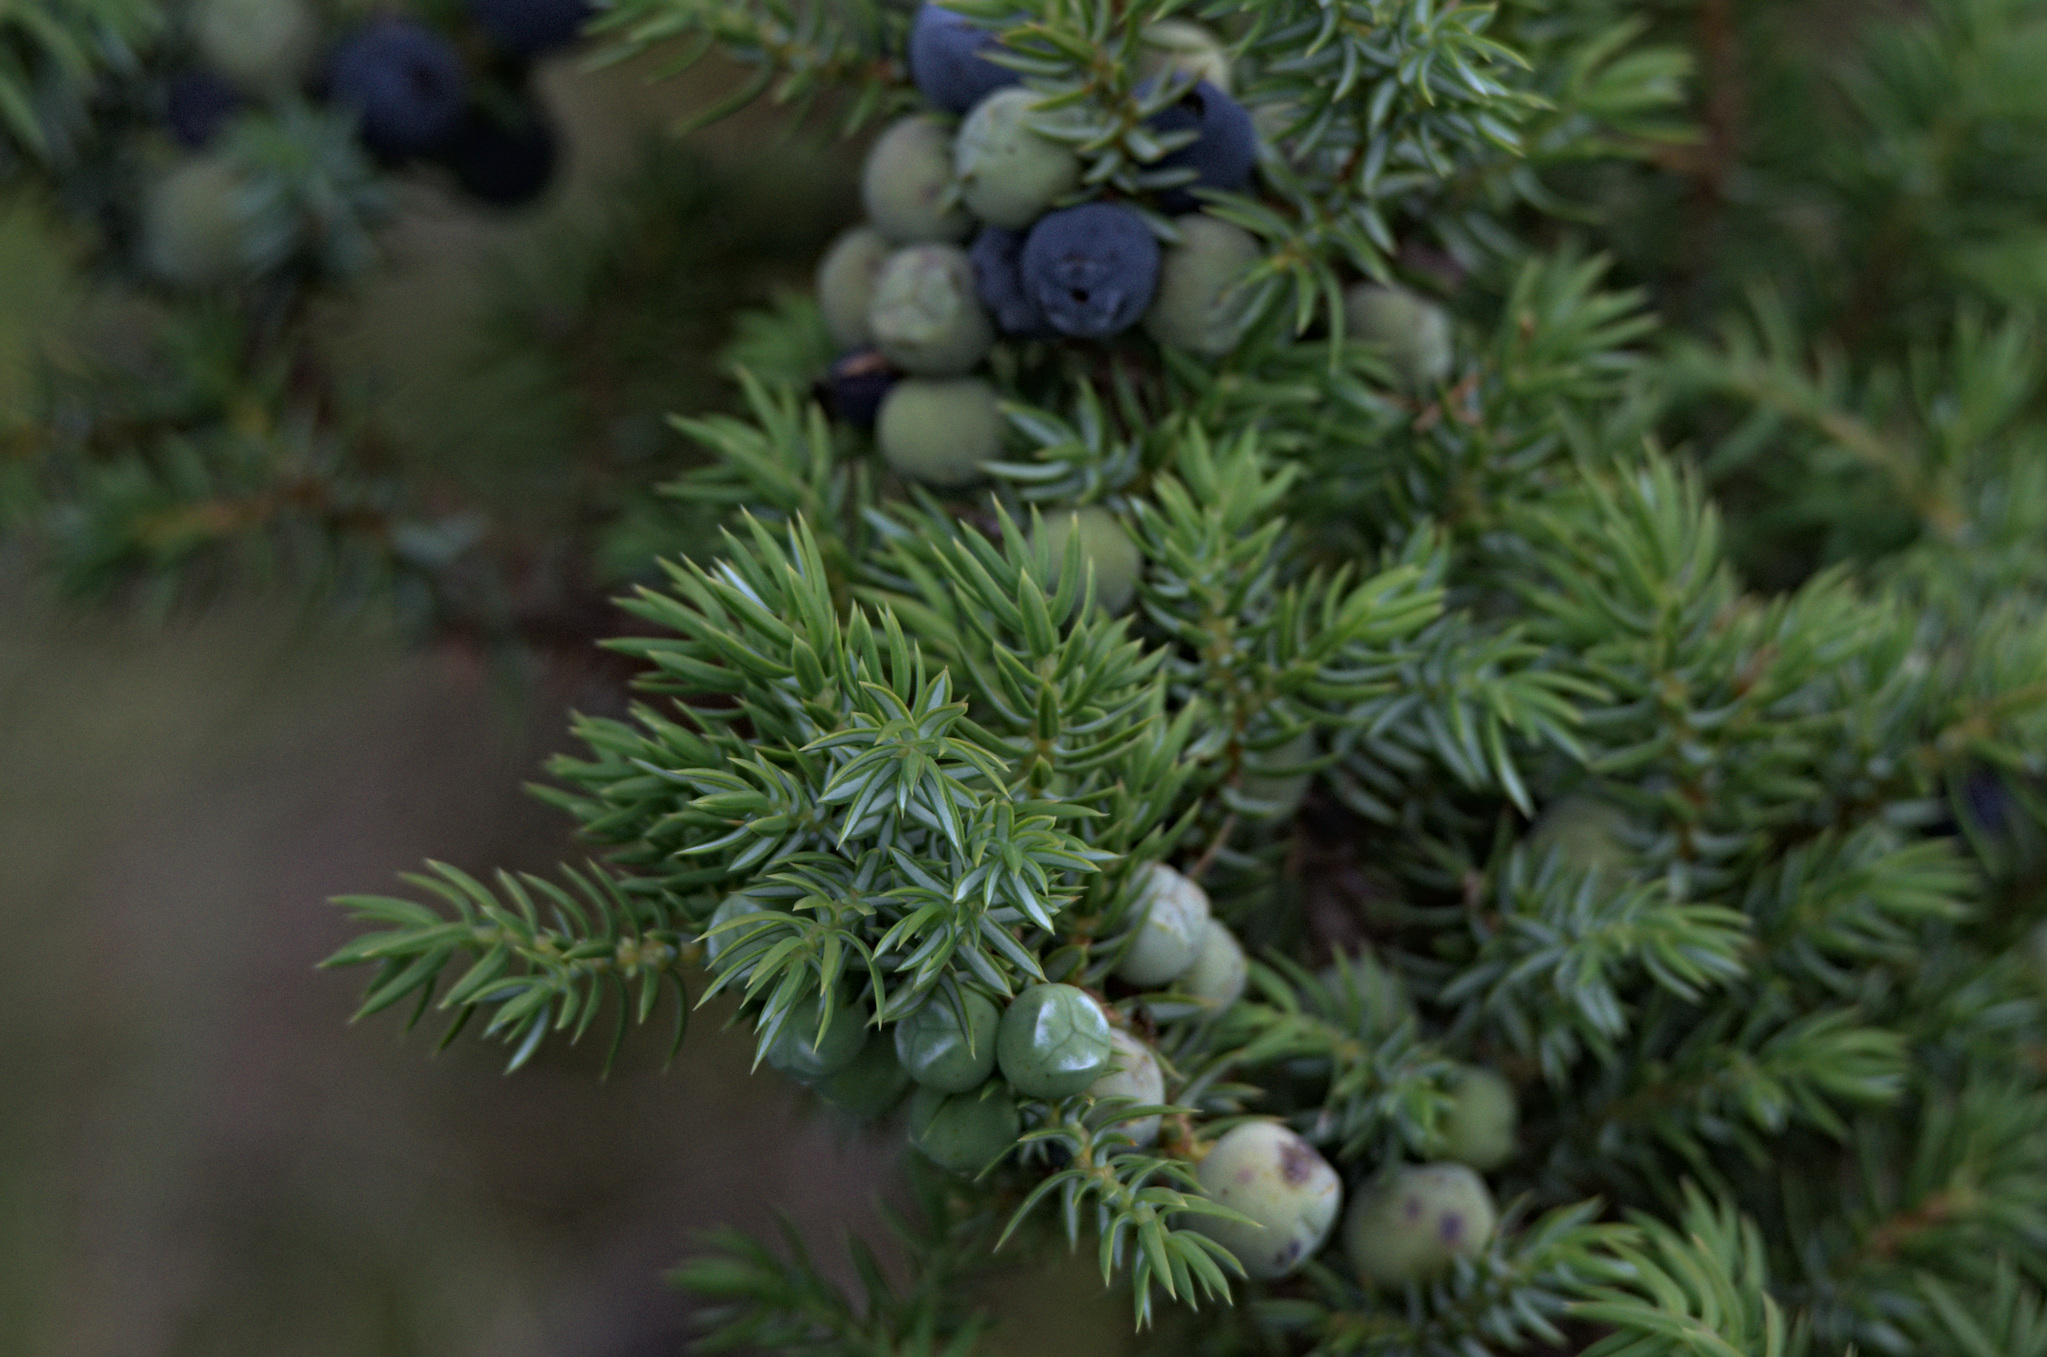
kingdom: Plantae
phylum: Tracheophyta
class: Pinopsida
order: Pinales
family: Cupressaceae
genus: Juniperus
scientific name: Juniperus communis
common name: Common juniper
